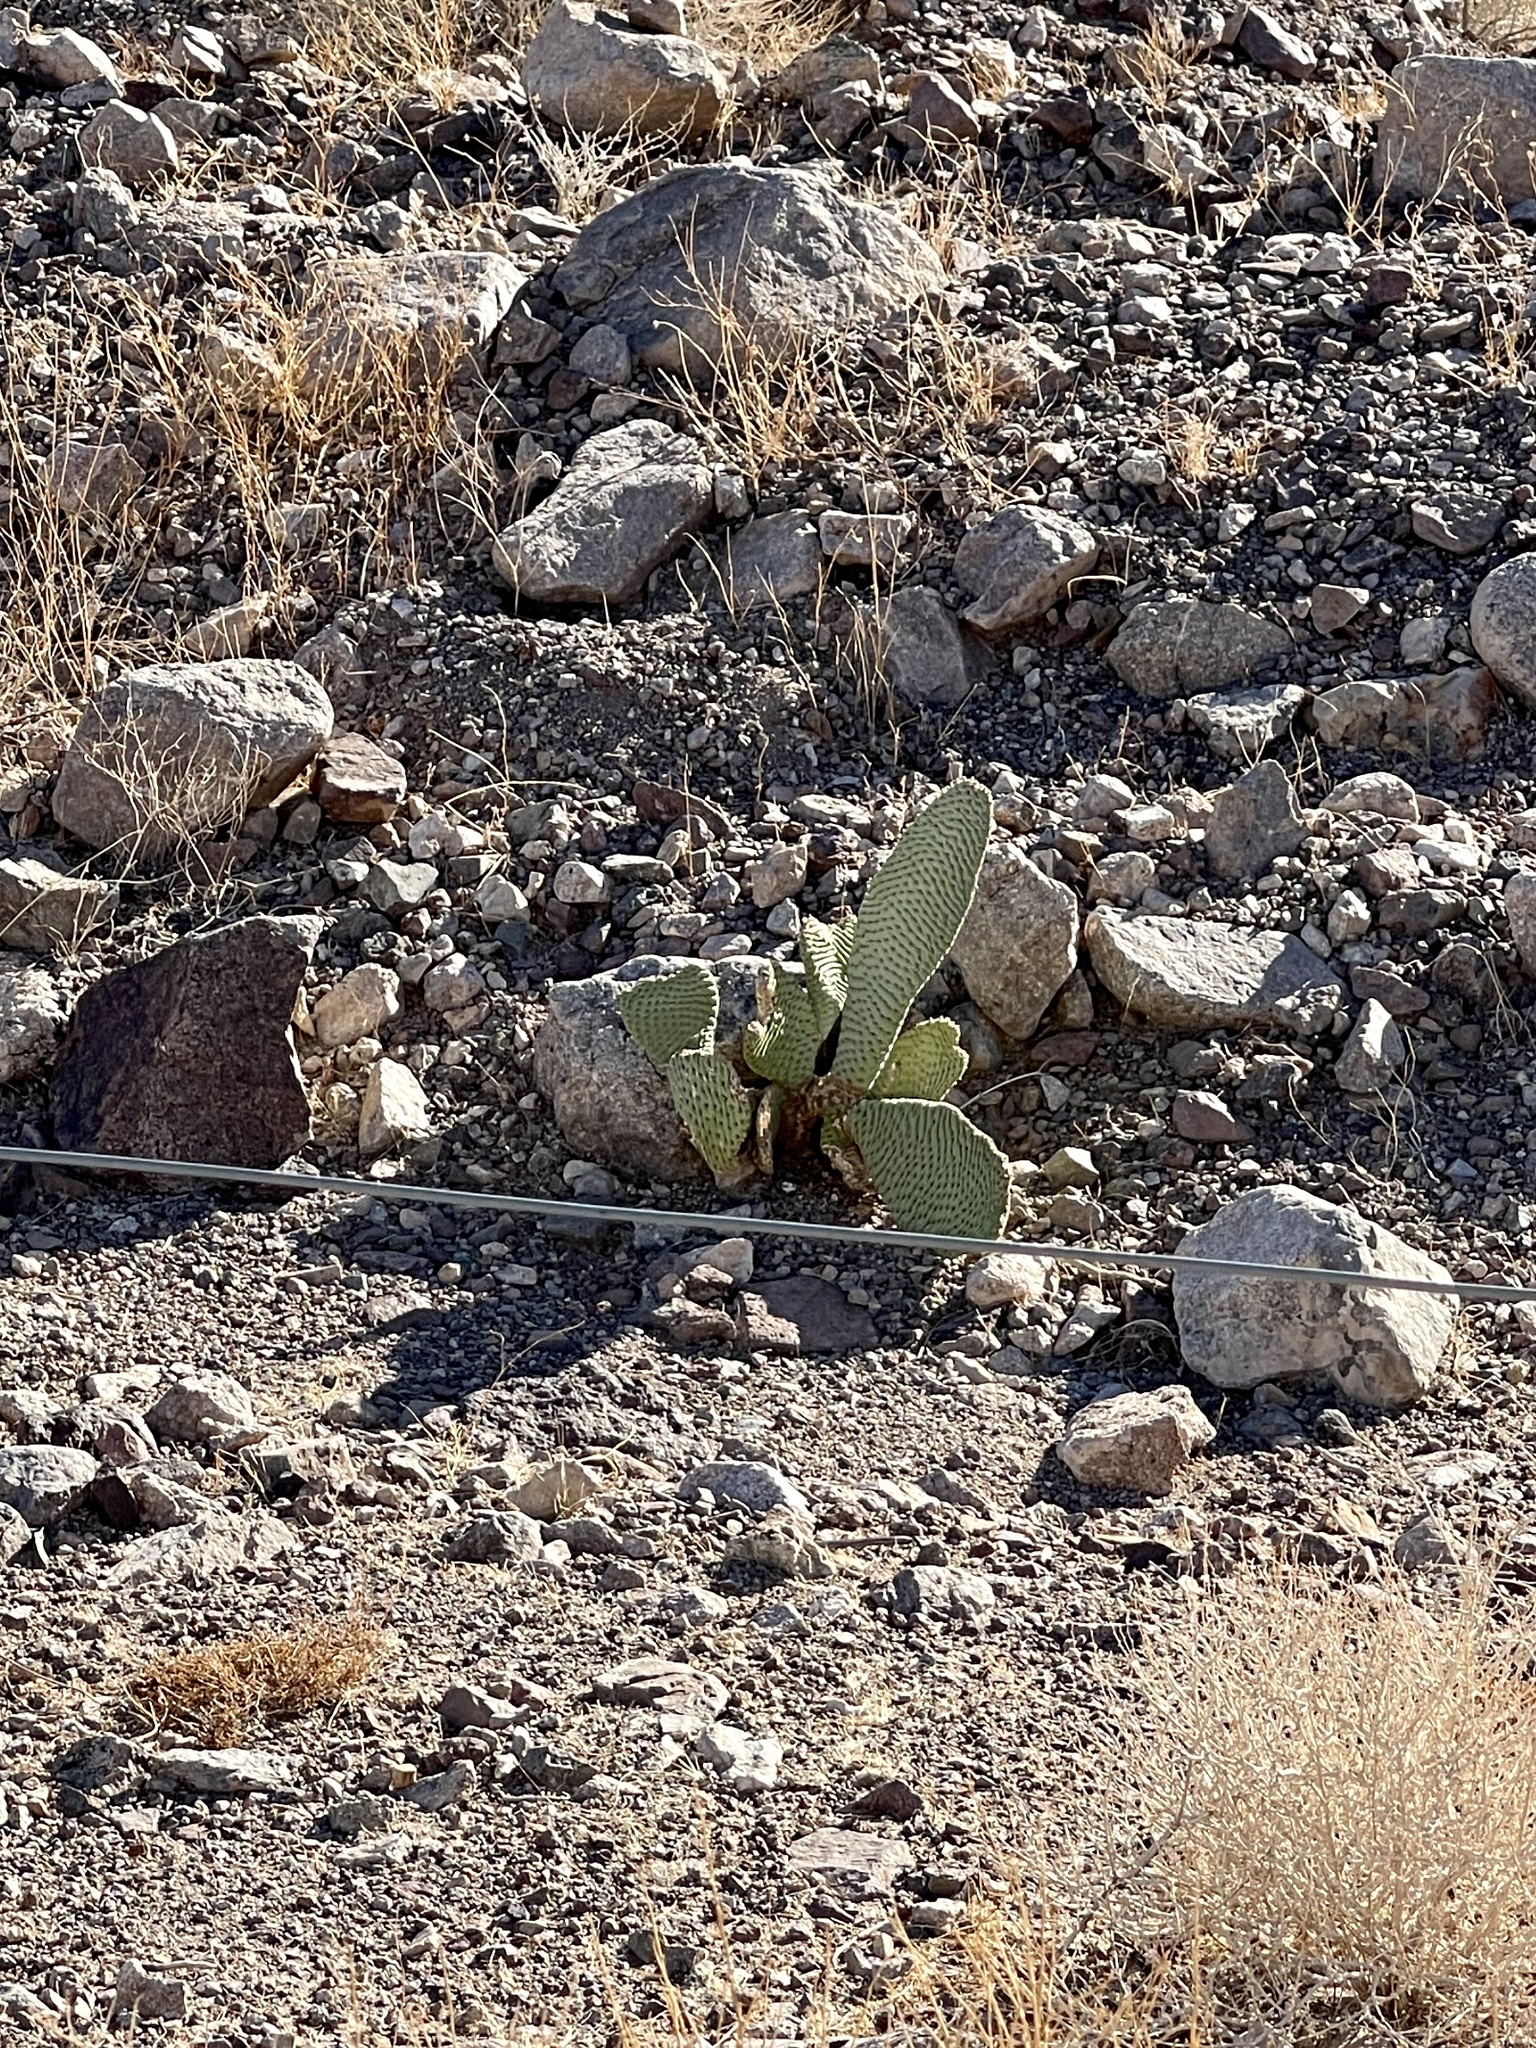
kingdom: Plantae
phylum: Tracheophyta
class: Magnoliopsida
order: Caryophyllales
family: Cactaceae
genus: Opuntia
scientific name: Opuntia basilaris
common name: Beavertail prickly-pear
